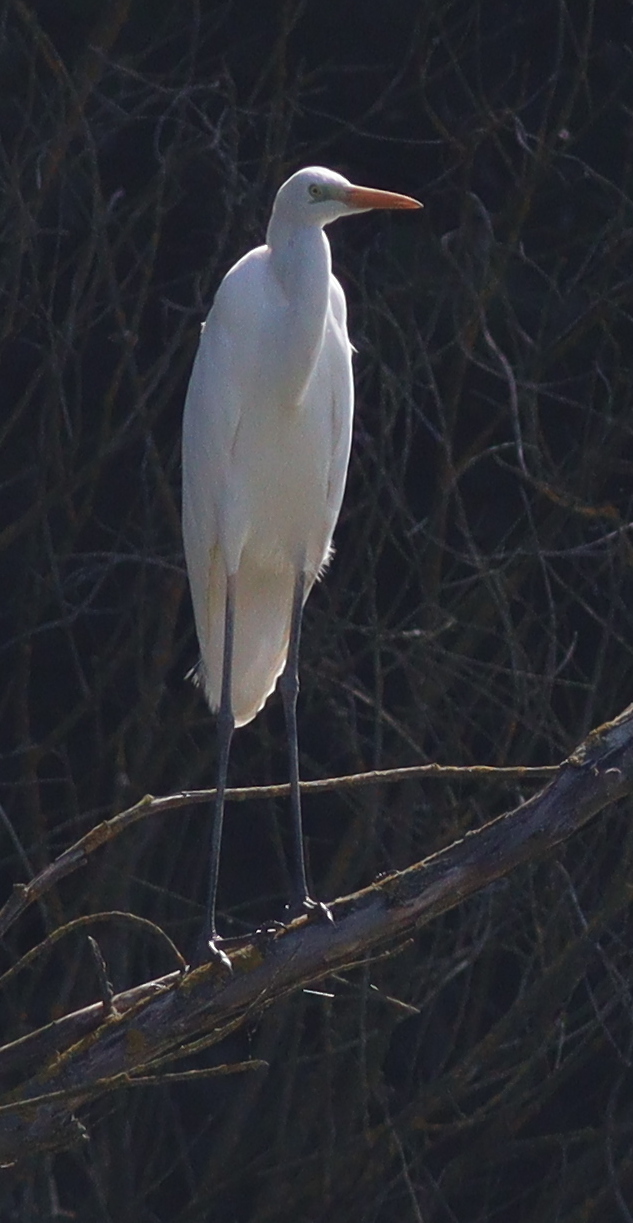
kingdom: Animalia
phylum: Chordata
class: Aves
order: Pelecaniformes
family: Ardeidae
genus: Ardea
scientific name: Ardea alba
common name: Great egret
